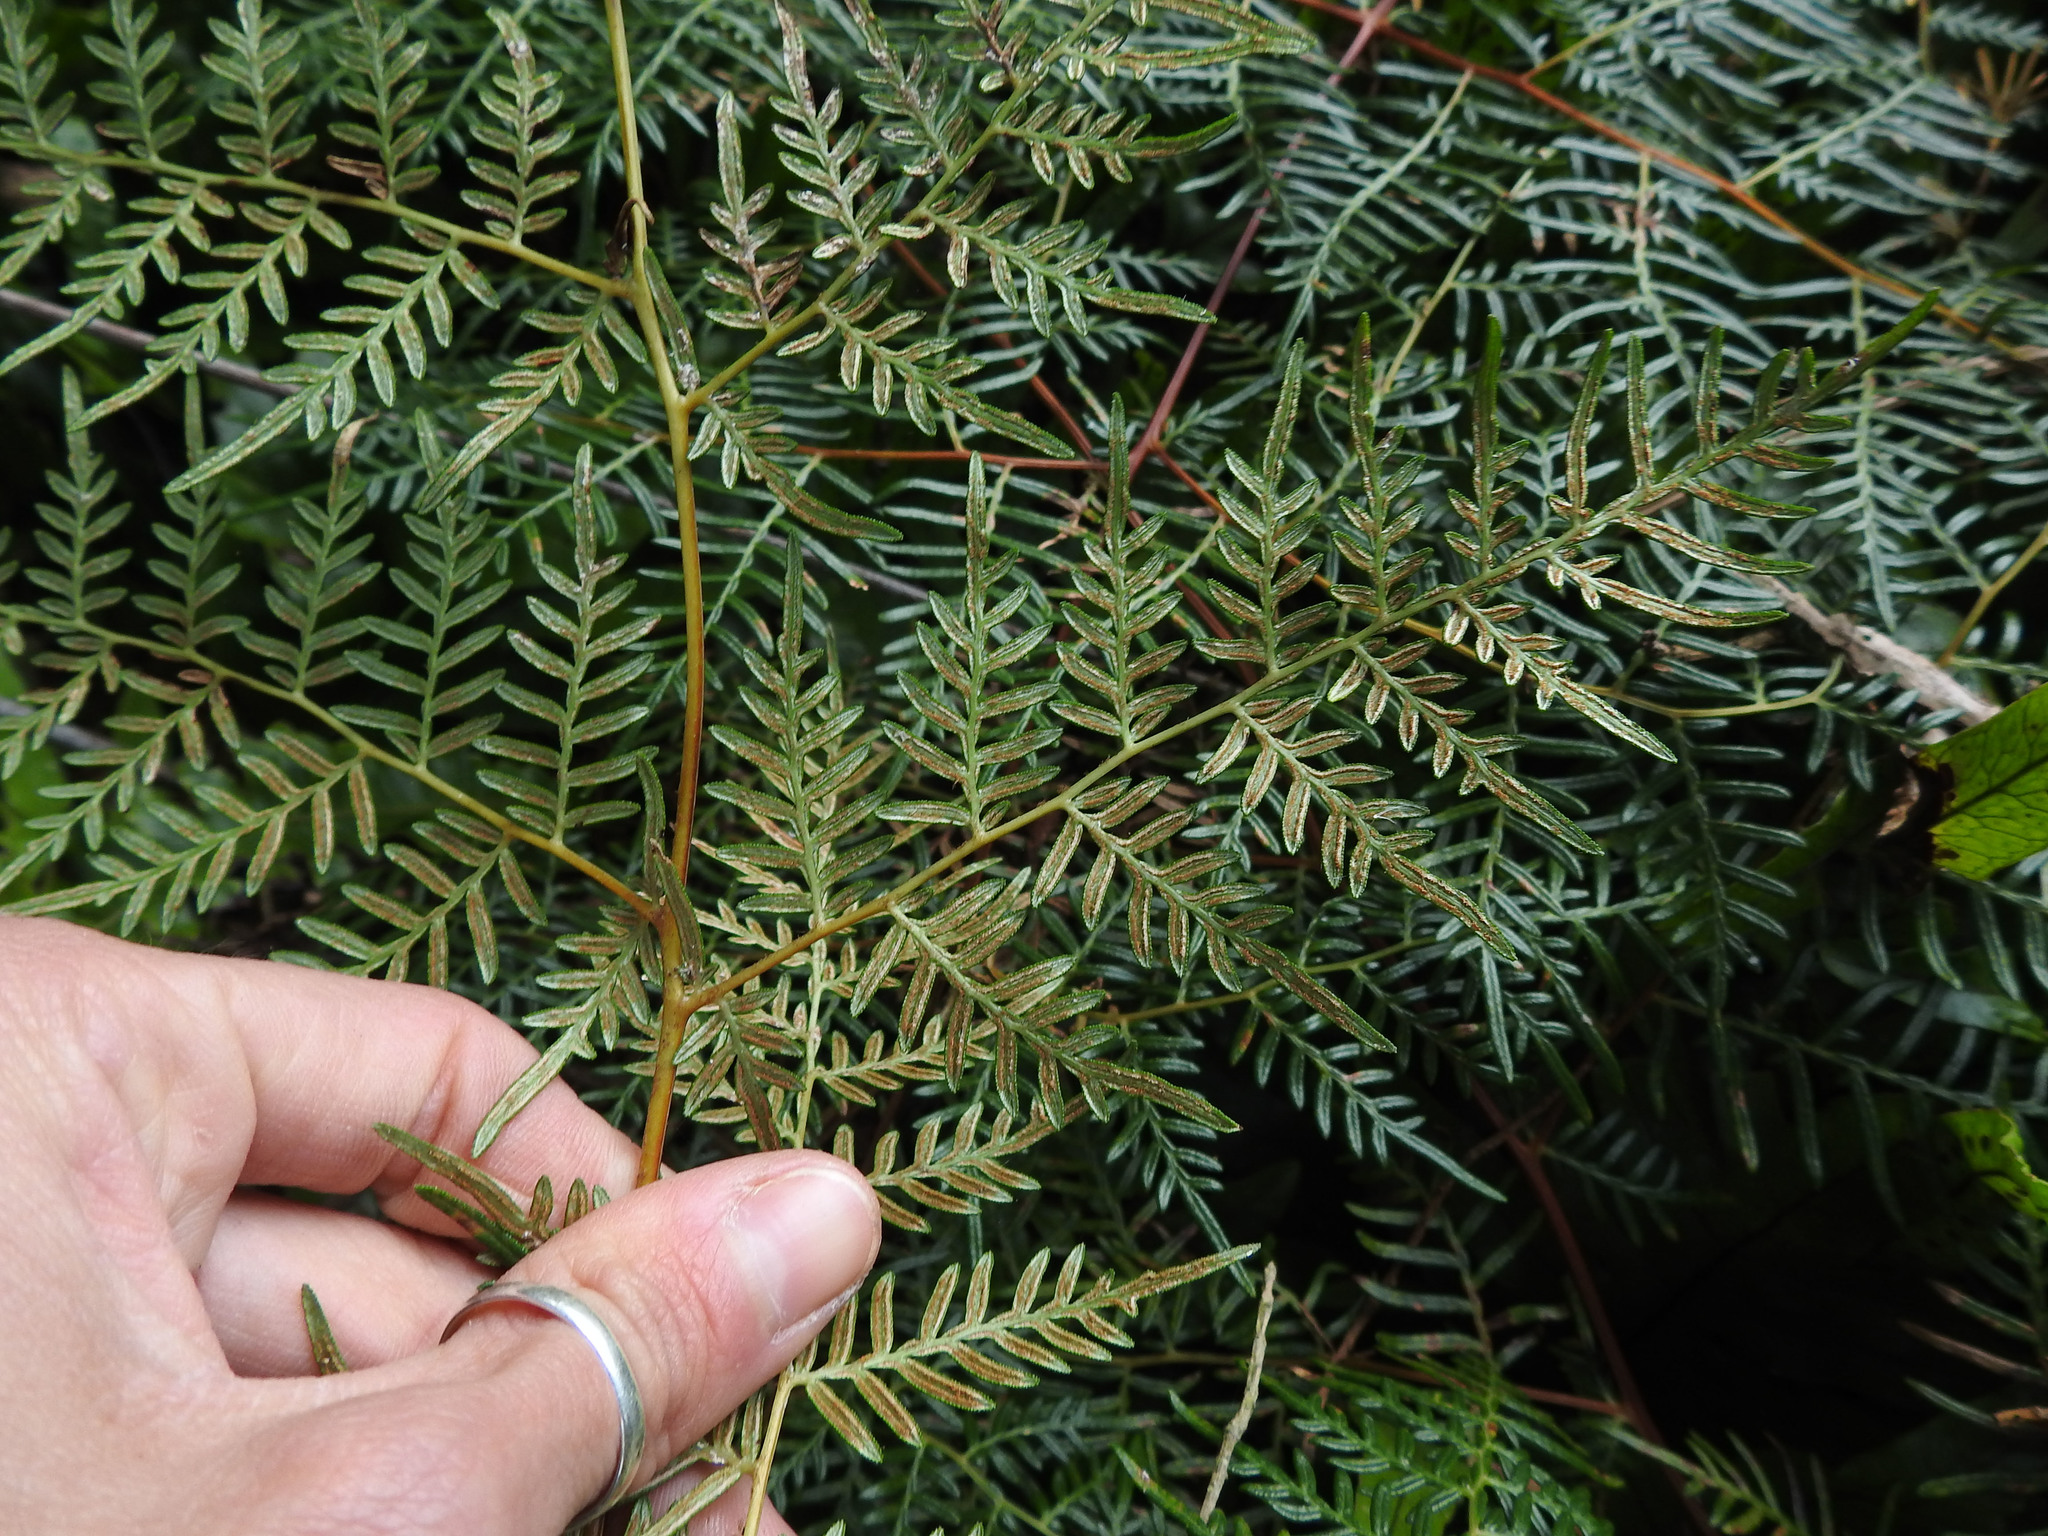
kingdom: Plantae
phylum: Tracheophyta
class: Polypodiopsida
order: Polypodiales
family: Dennstaedtiaceae
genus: Pteridium
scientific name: Pteridium esculentum
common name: Bracken fern
